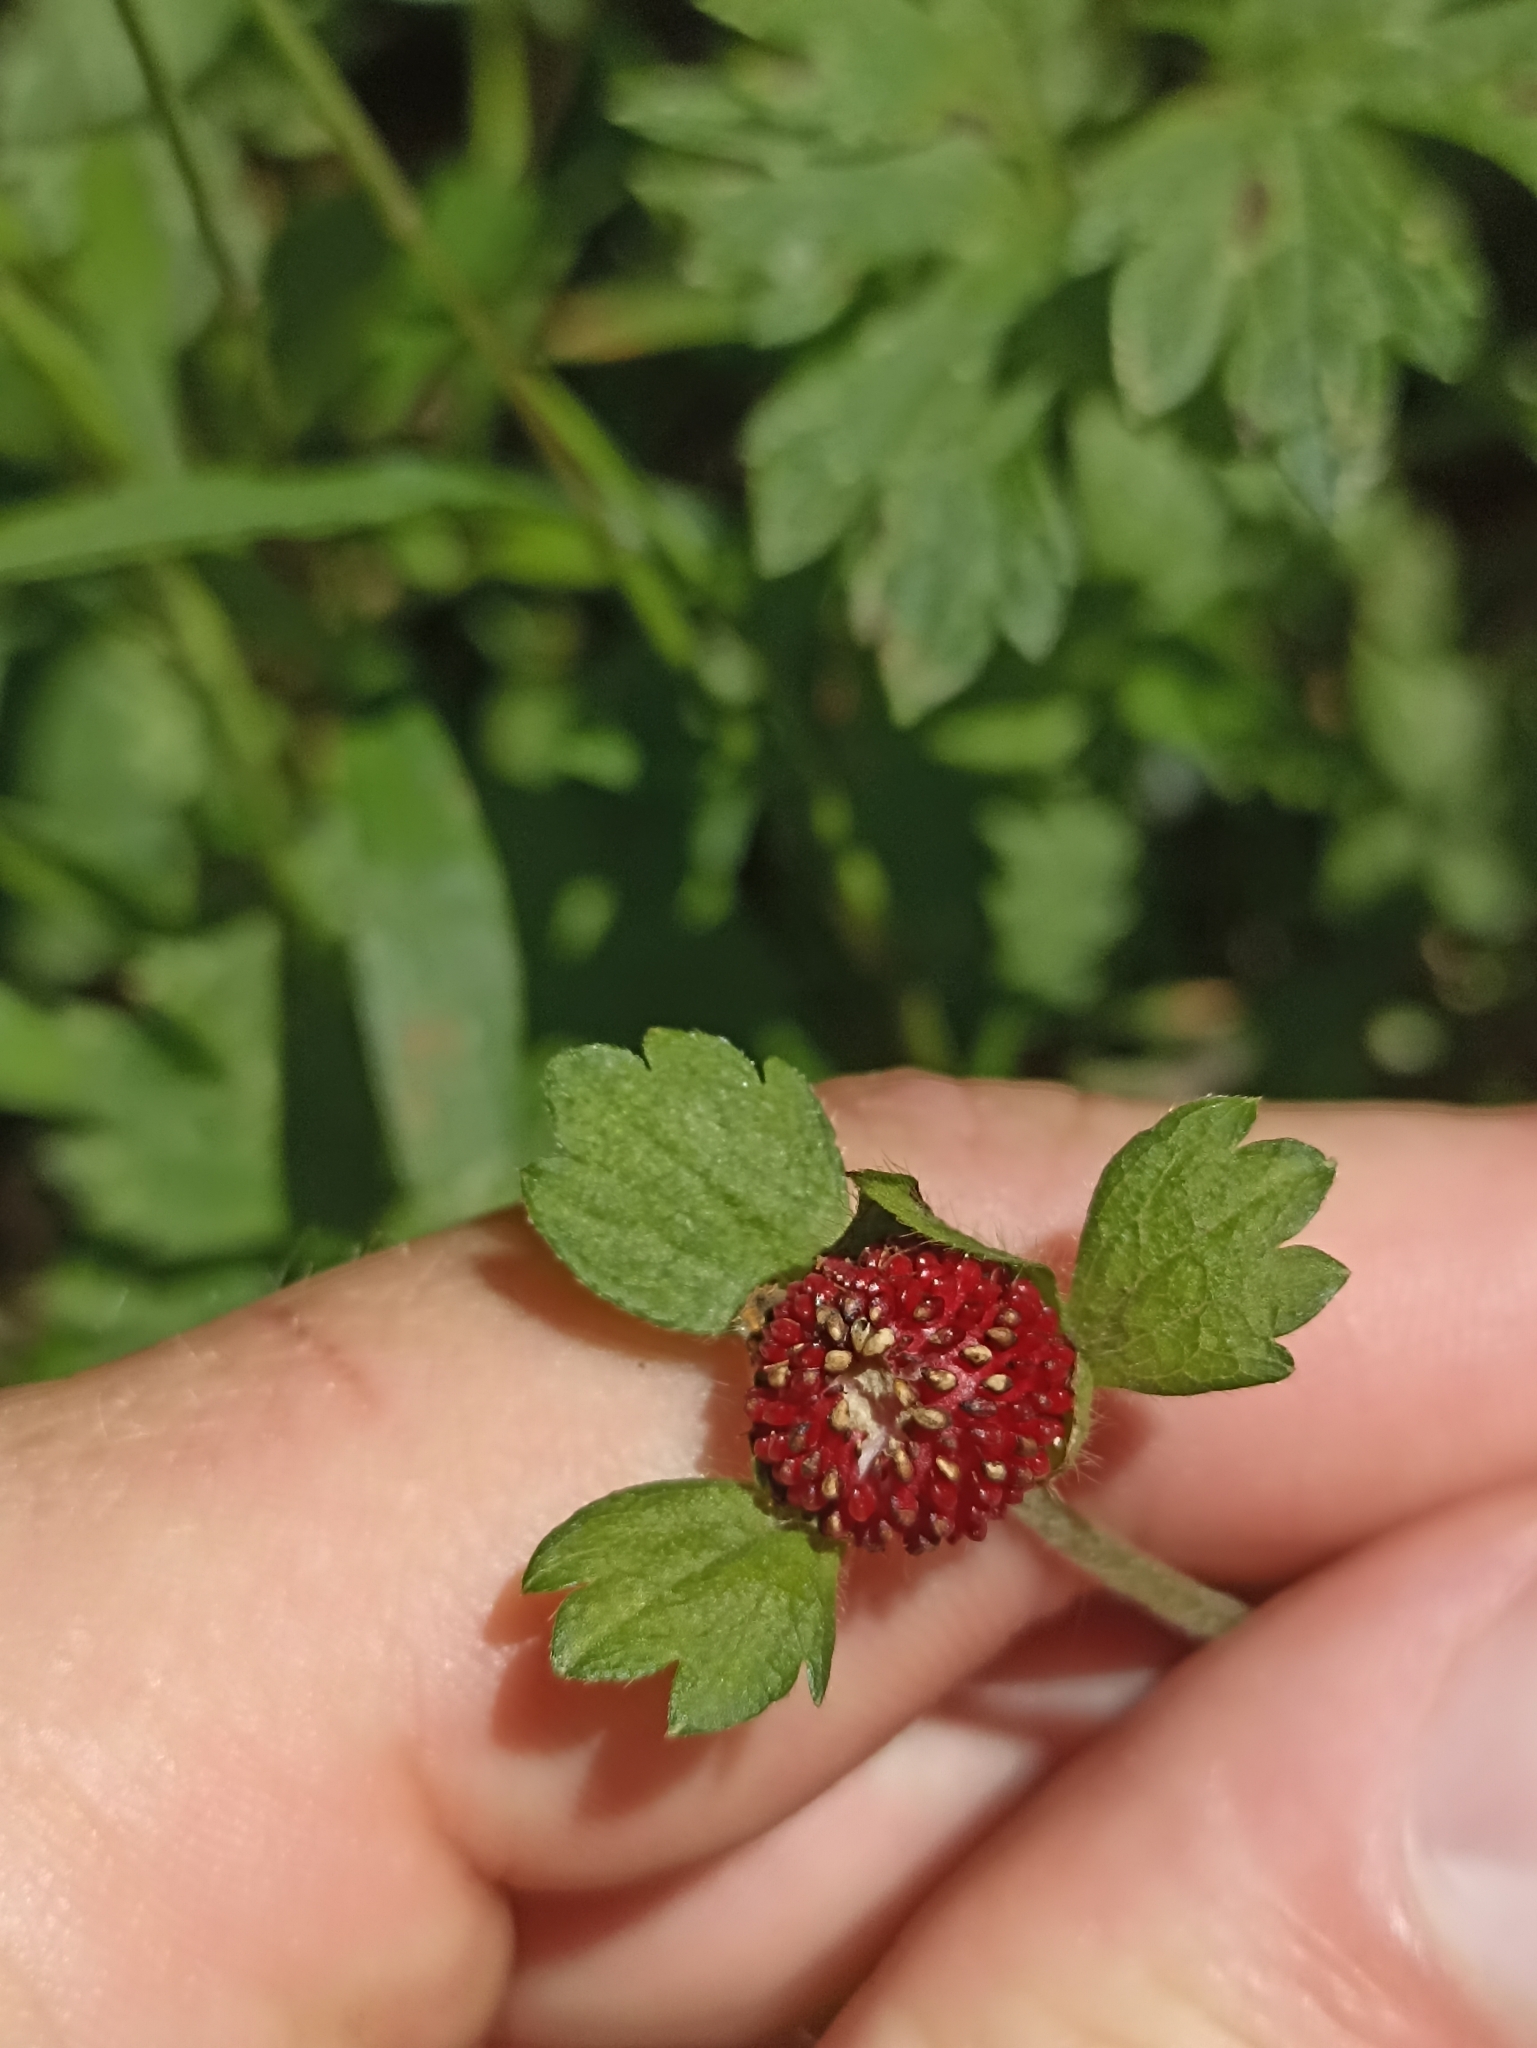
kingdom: Plantae
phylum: Tracheophyta
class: Magnoliopsida
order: Rosales
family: Rosaceae
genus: Potentilla
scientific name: Potentilla indica
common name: Yellow-flowered strawberry
